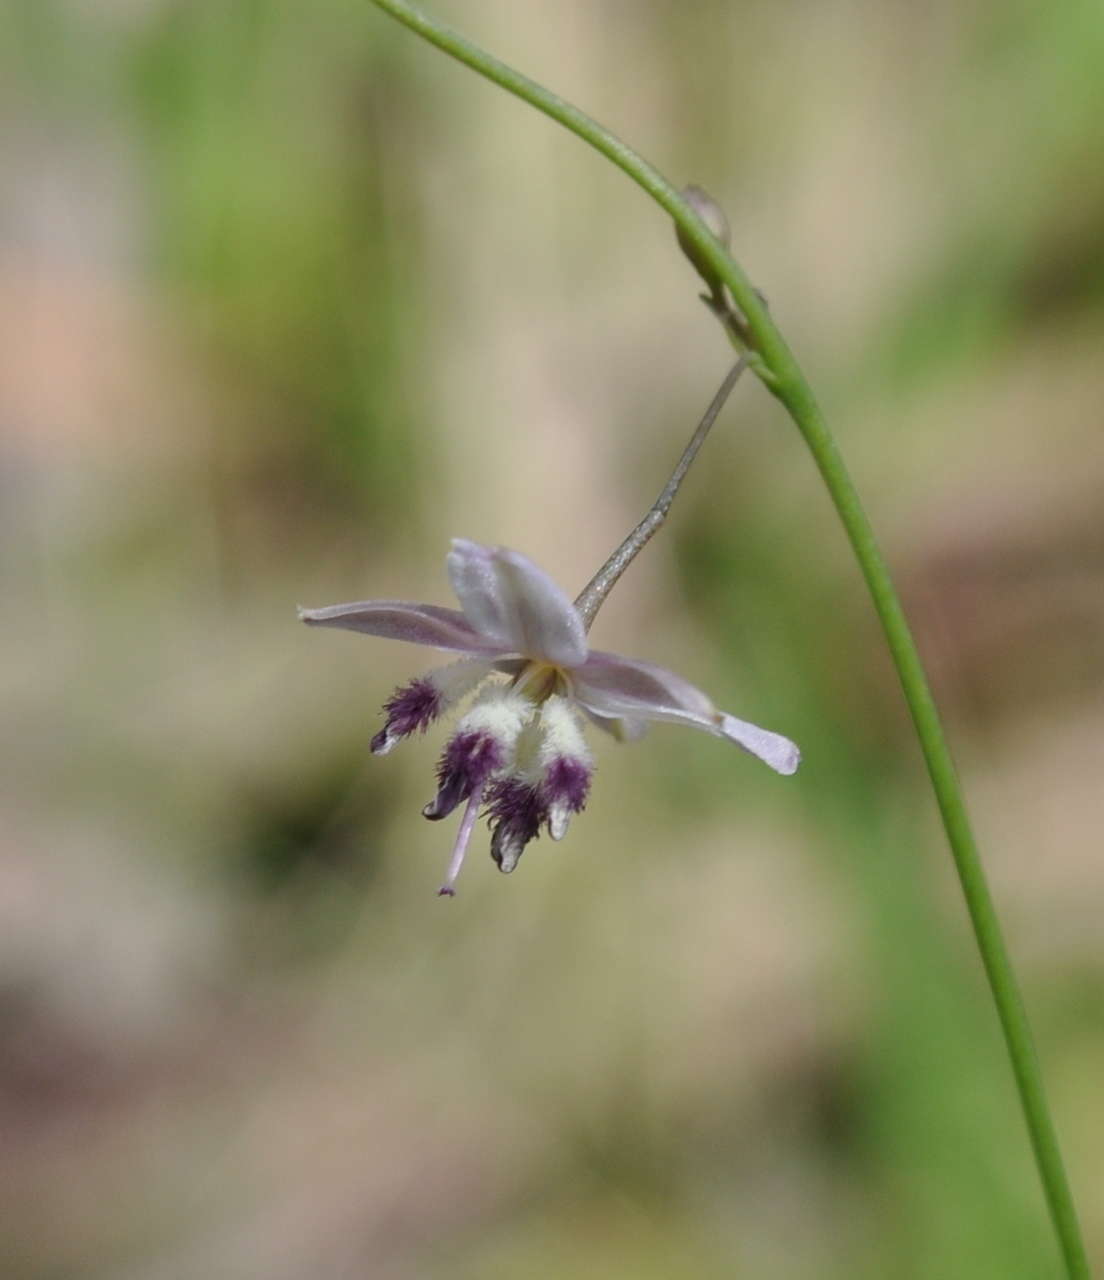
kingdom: Plantae
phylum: Tracheophyta
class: Liliopsida
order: Asparagales
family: Asparagaceae
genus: Arthropodium
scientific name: Arthropodium milleflorum
